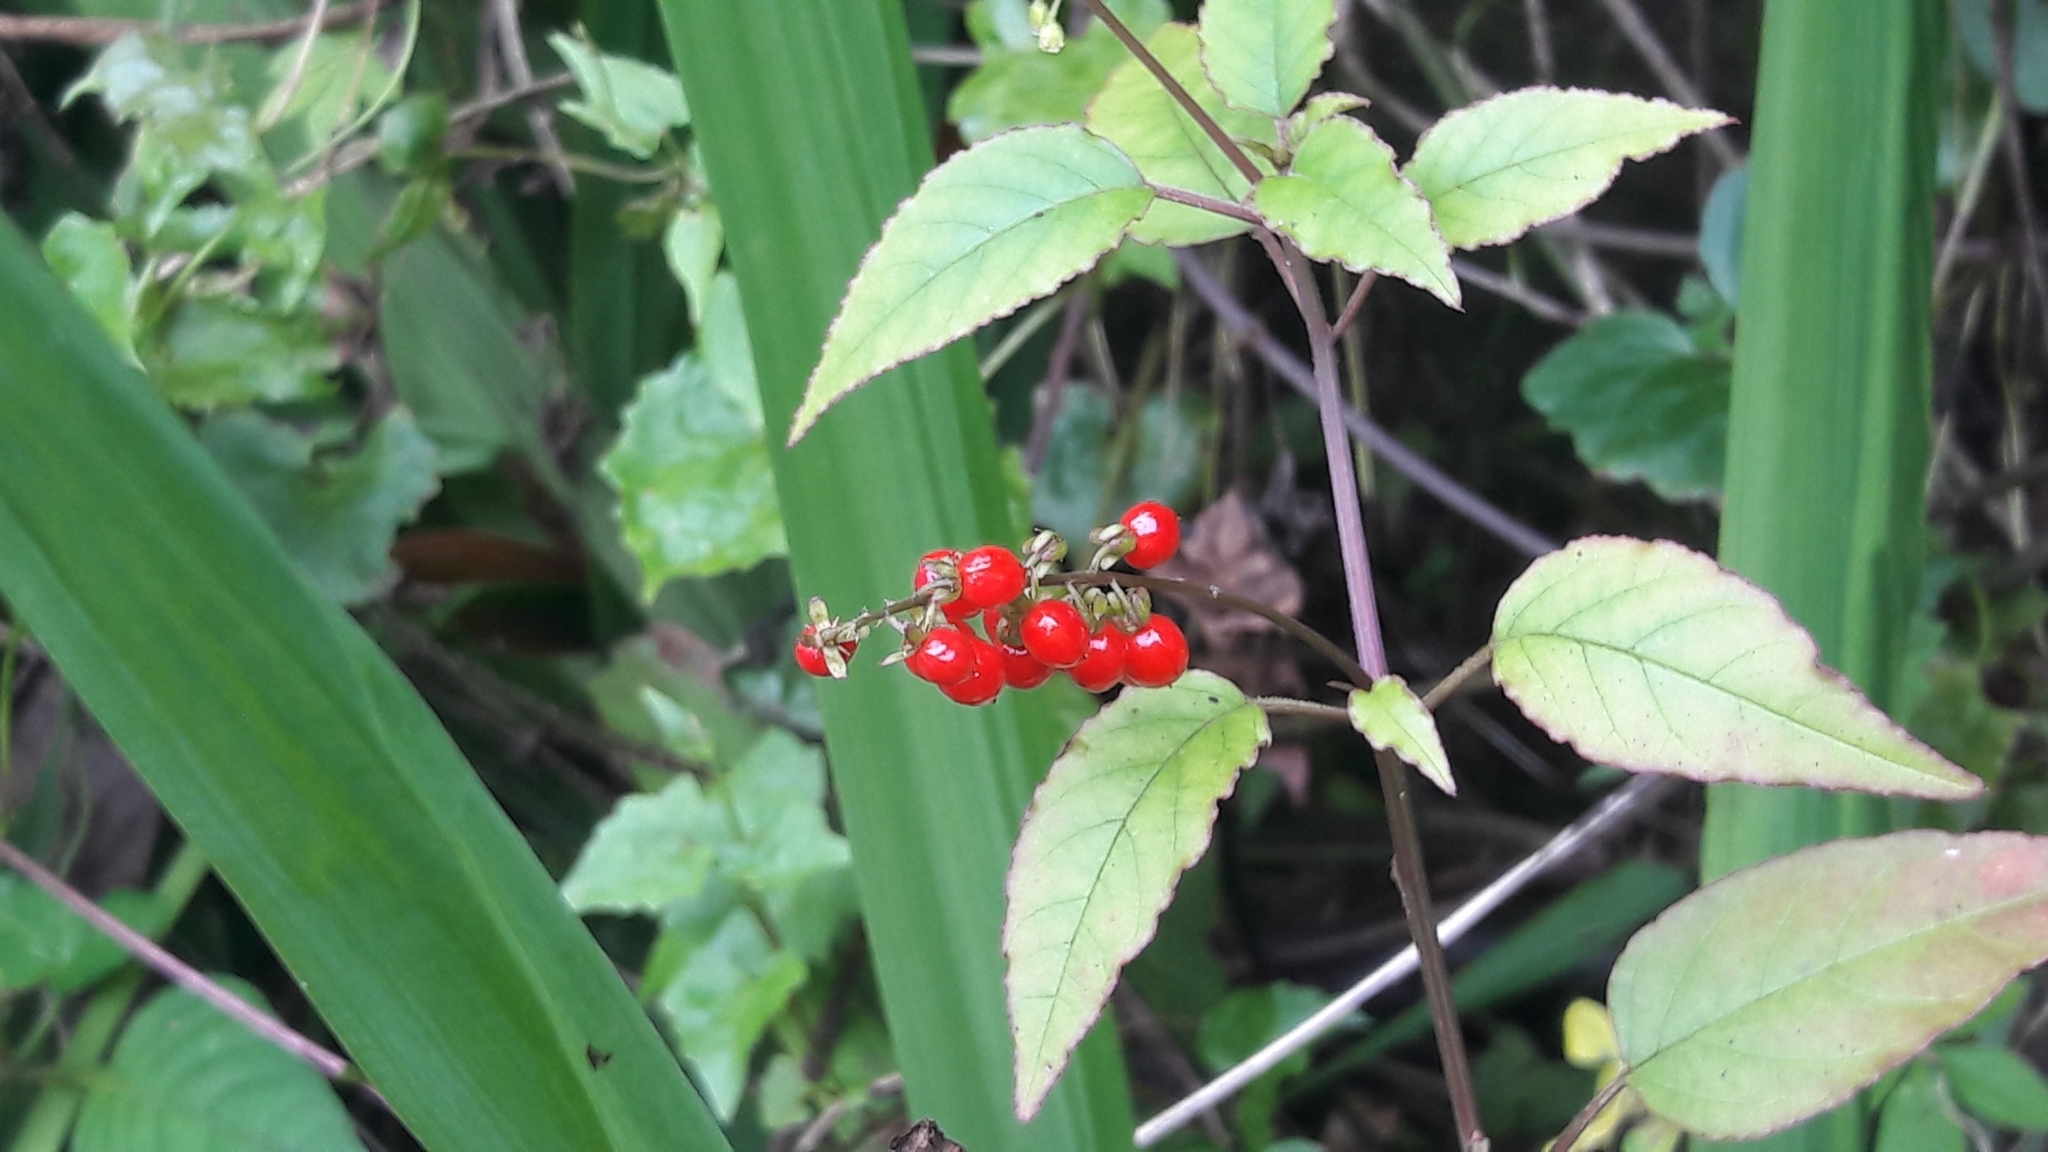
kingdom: Plantae
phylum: Tracheophyta
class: Magnoliopsida
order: Caryophyllales
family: Phytolaccaceae
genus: Rivina
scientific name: Rivina humilis
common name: Rougeplant
